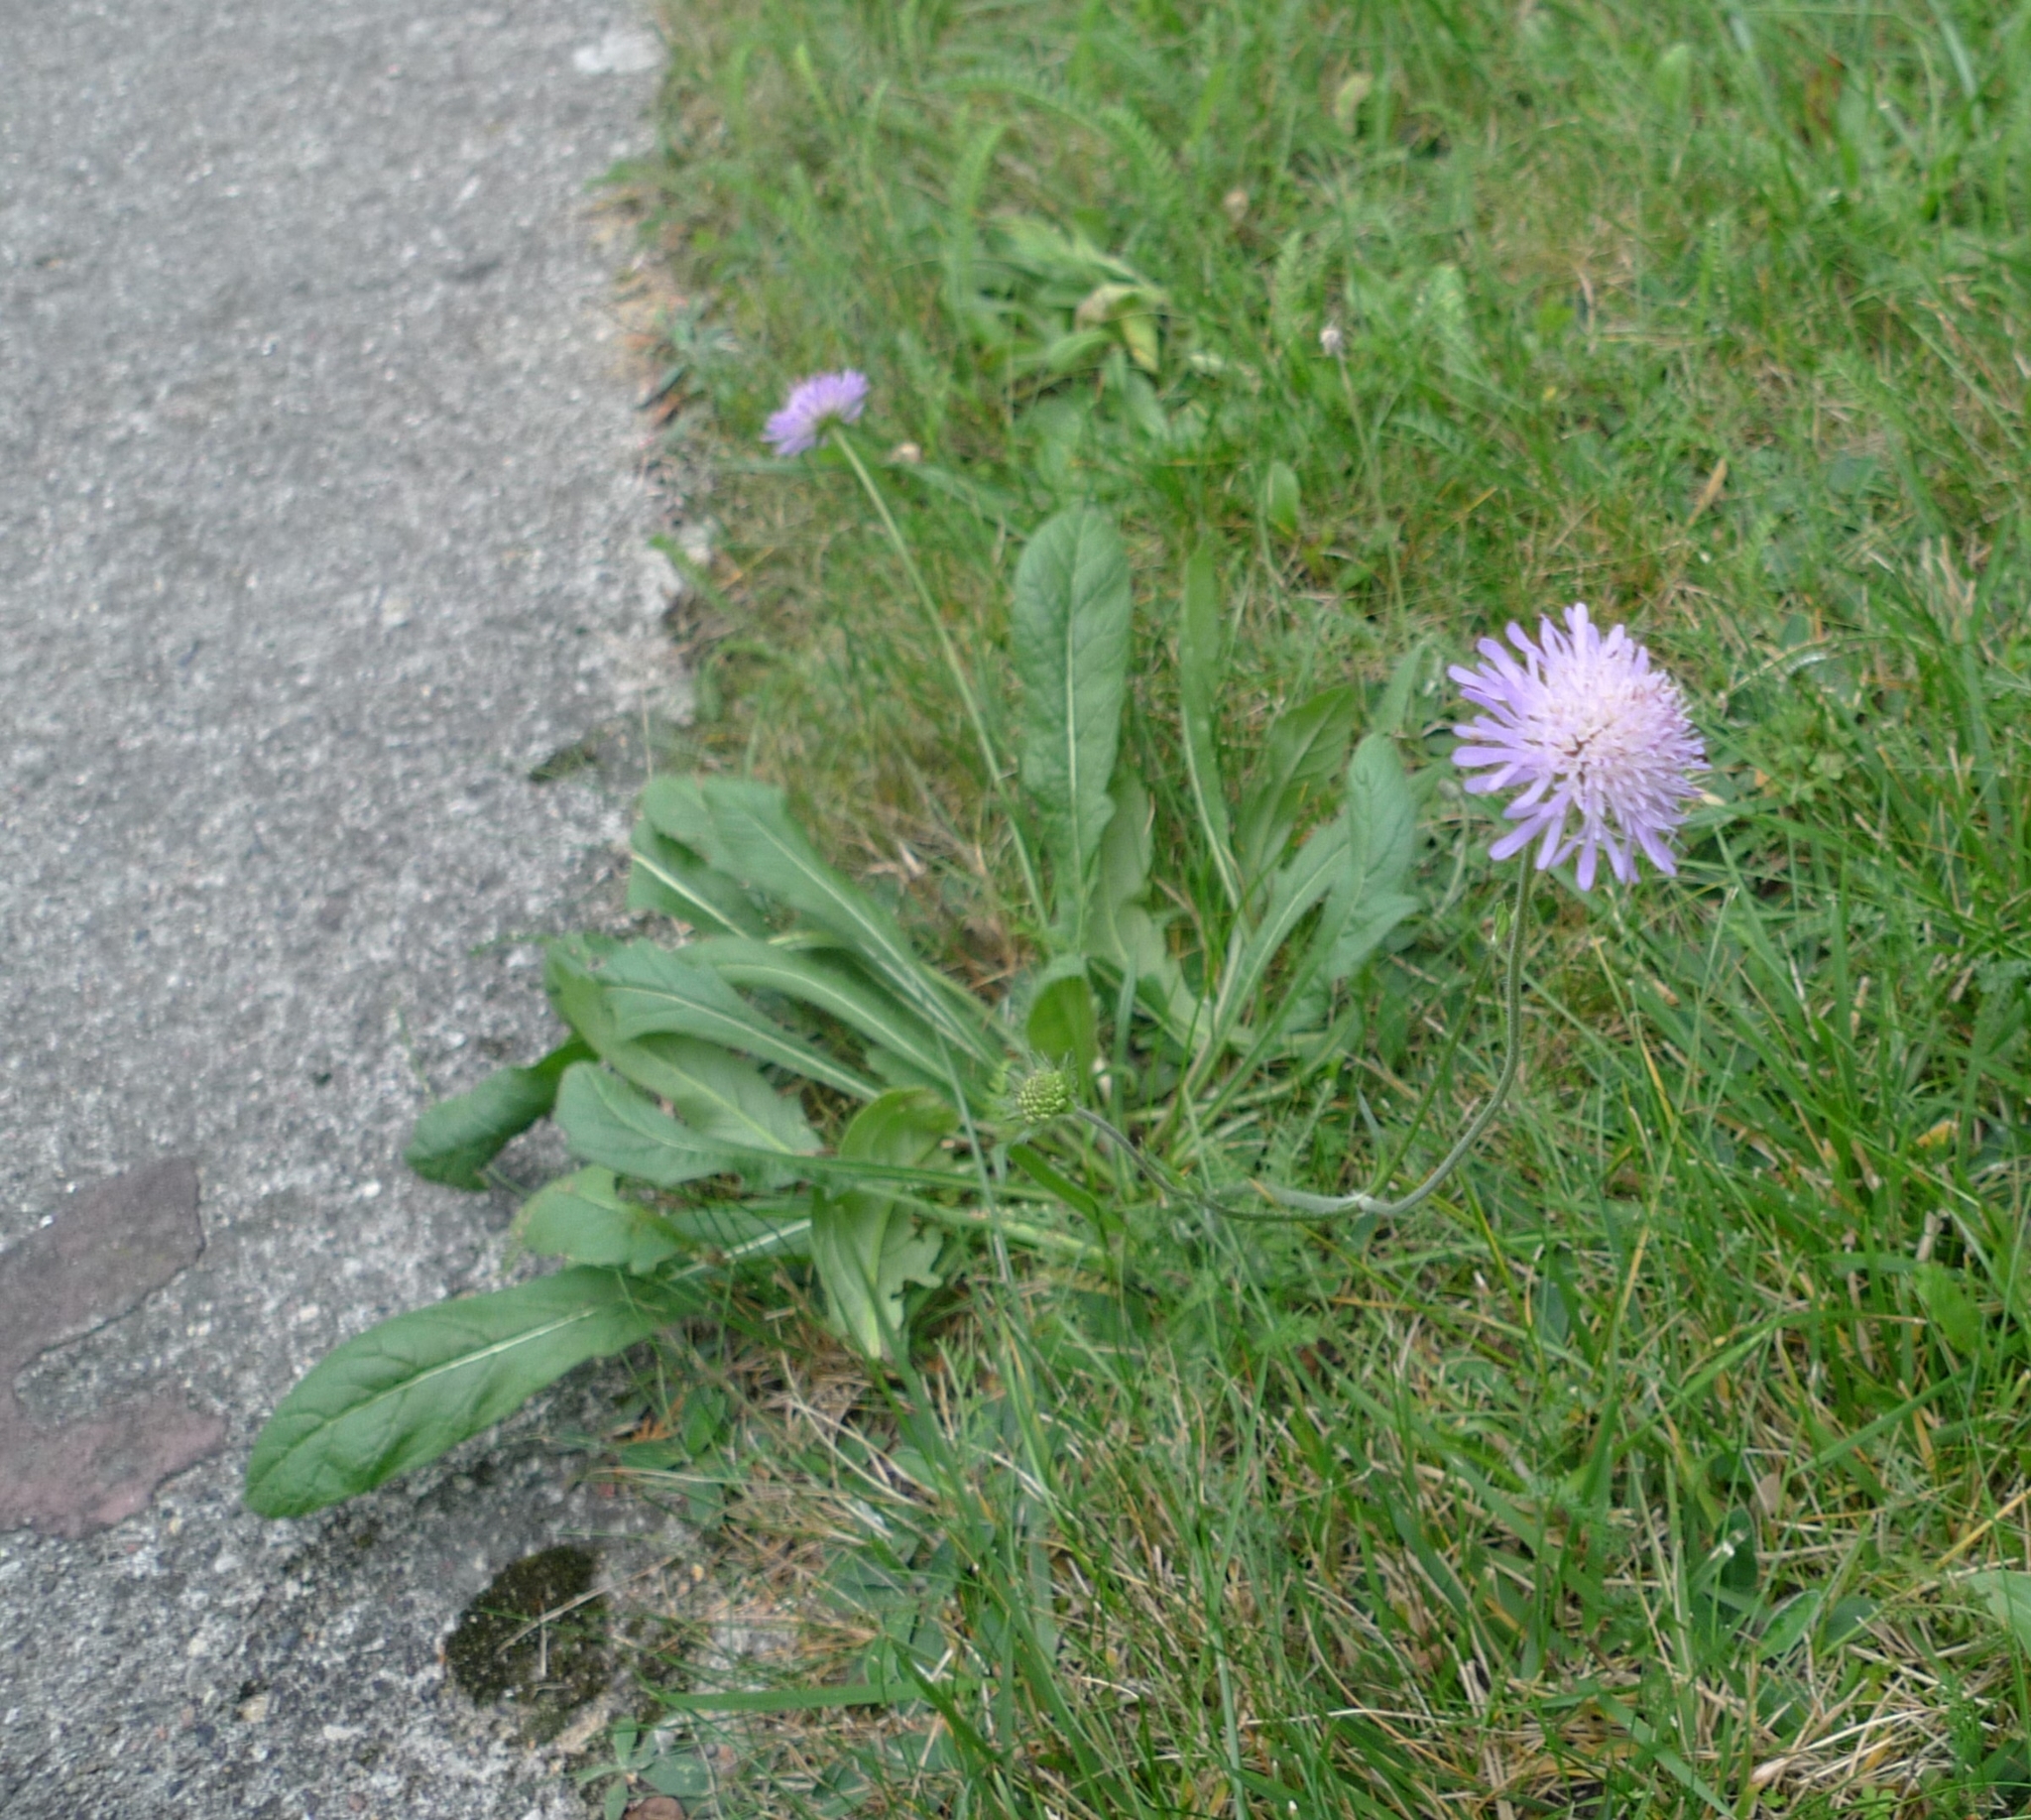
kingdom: Plantae
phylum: Tracheophyta
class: Magnoliopsida
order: Dipsacales
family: Caprifoliaceae
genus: Knautia
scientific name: Knautia arvensis
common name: Field scabiosa
